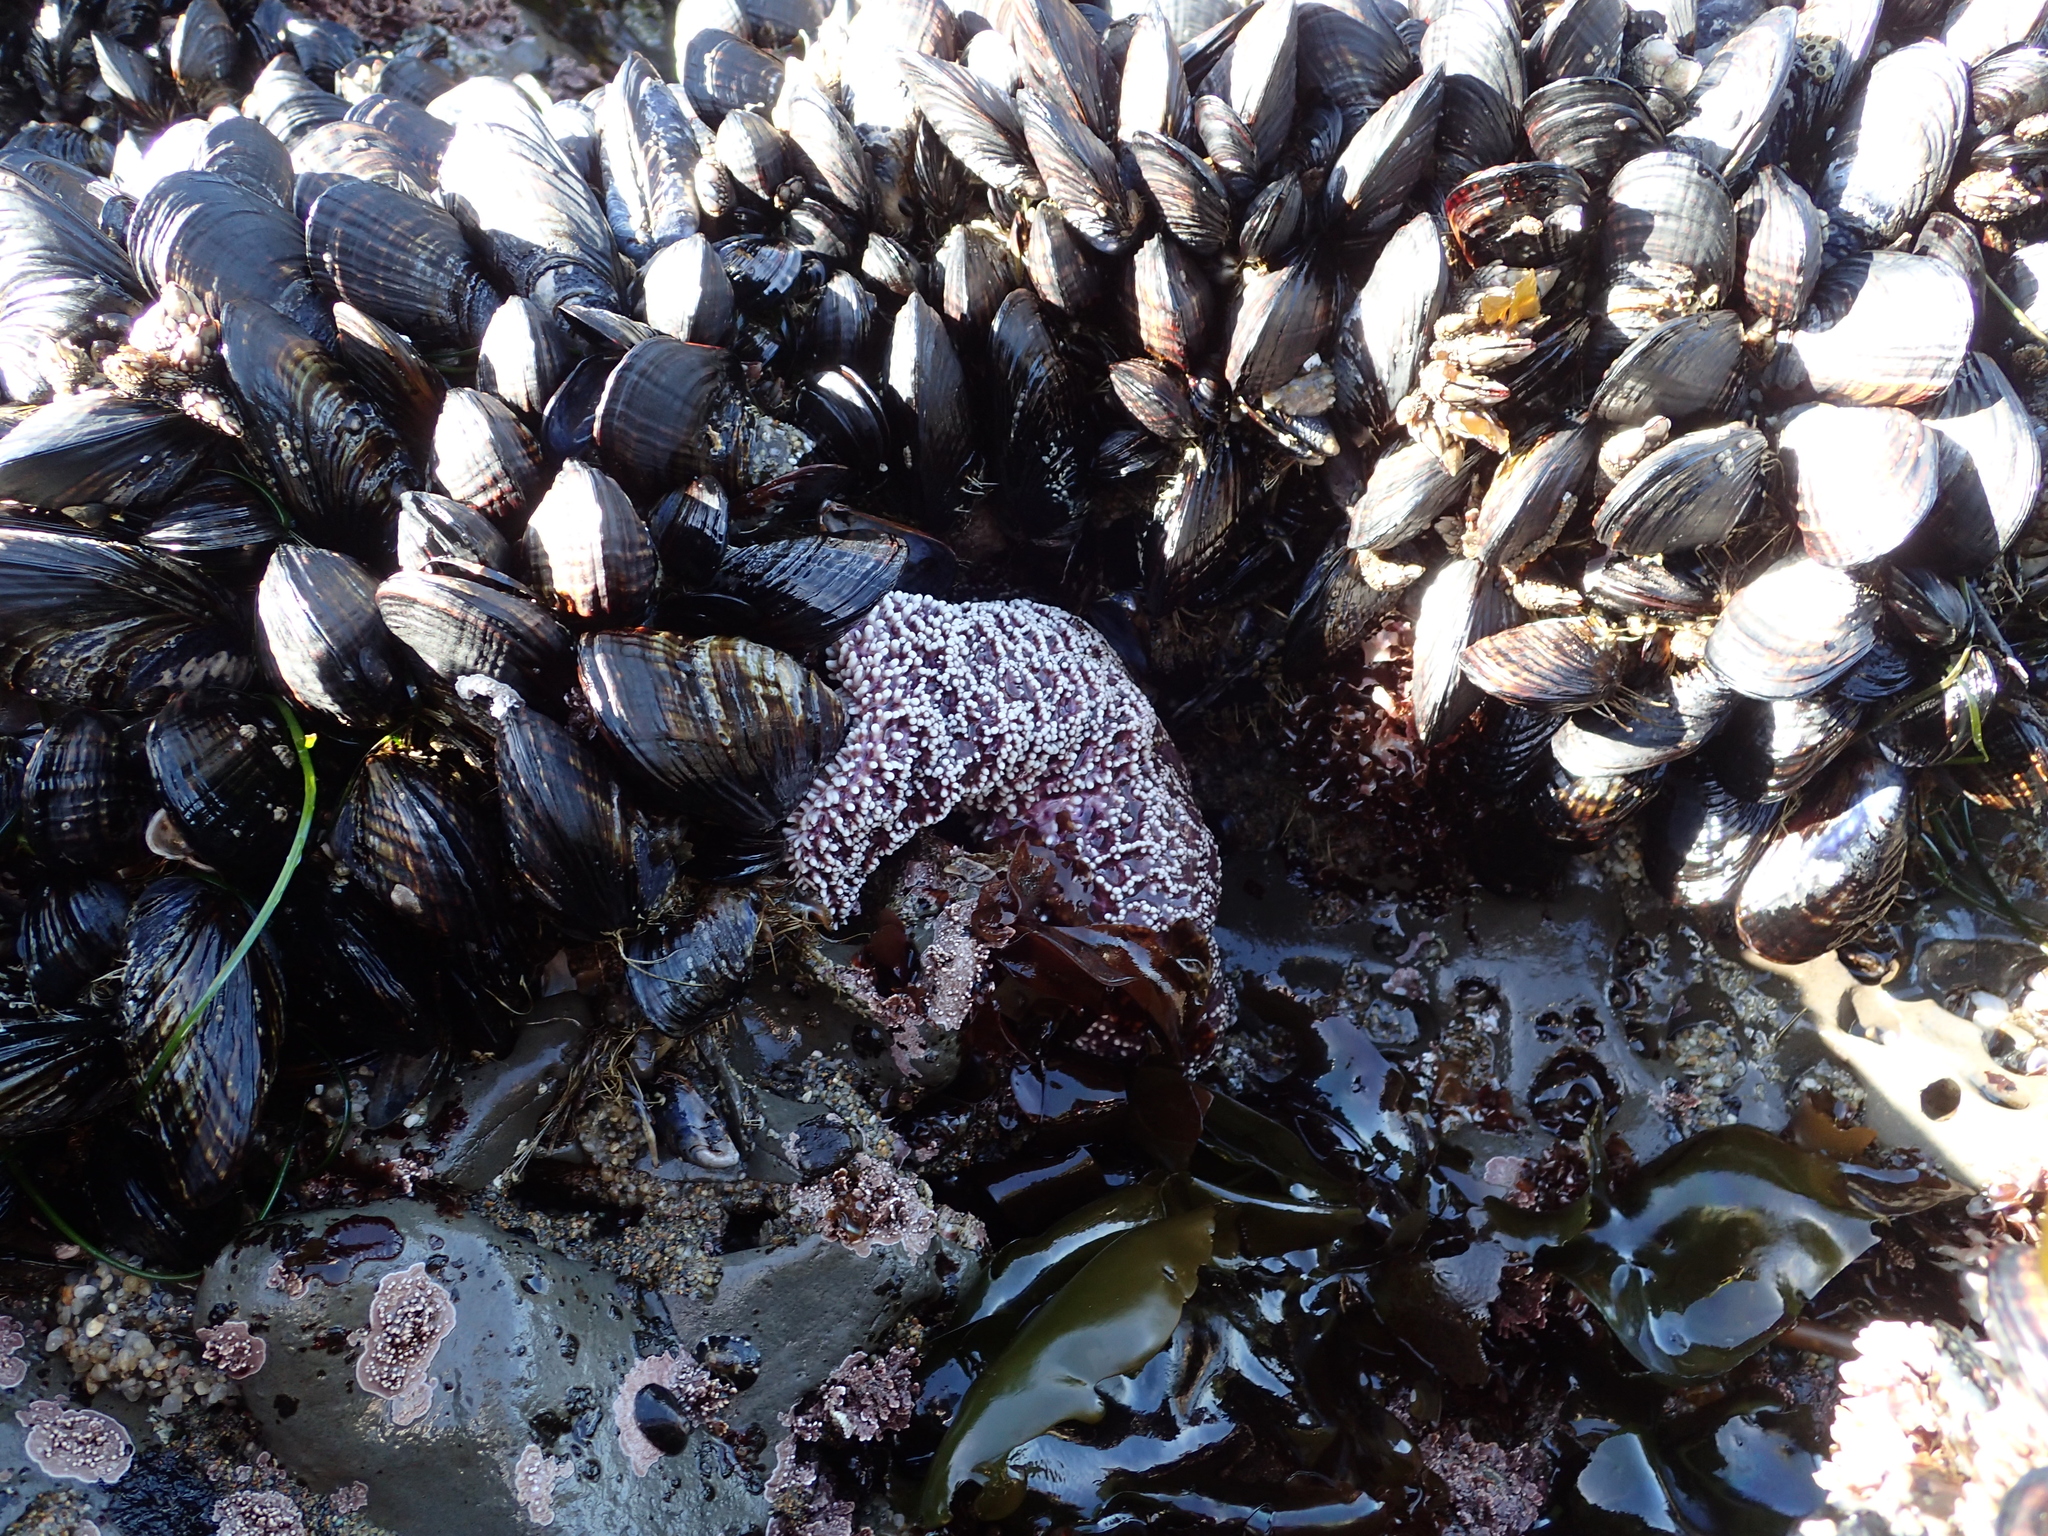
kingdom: Animalia
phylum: Echinodermata
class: Asteroidea
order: Forcipulatida
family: Asteriidae
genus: Pisaster
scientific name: Pisaster ochraceus
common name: Ochre stars
